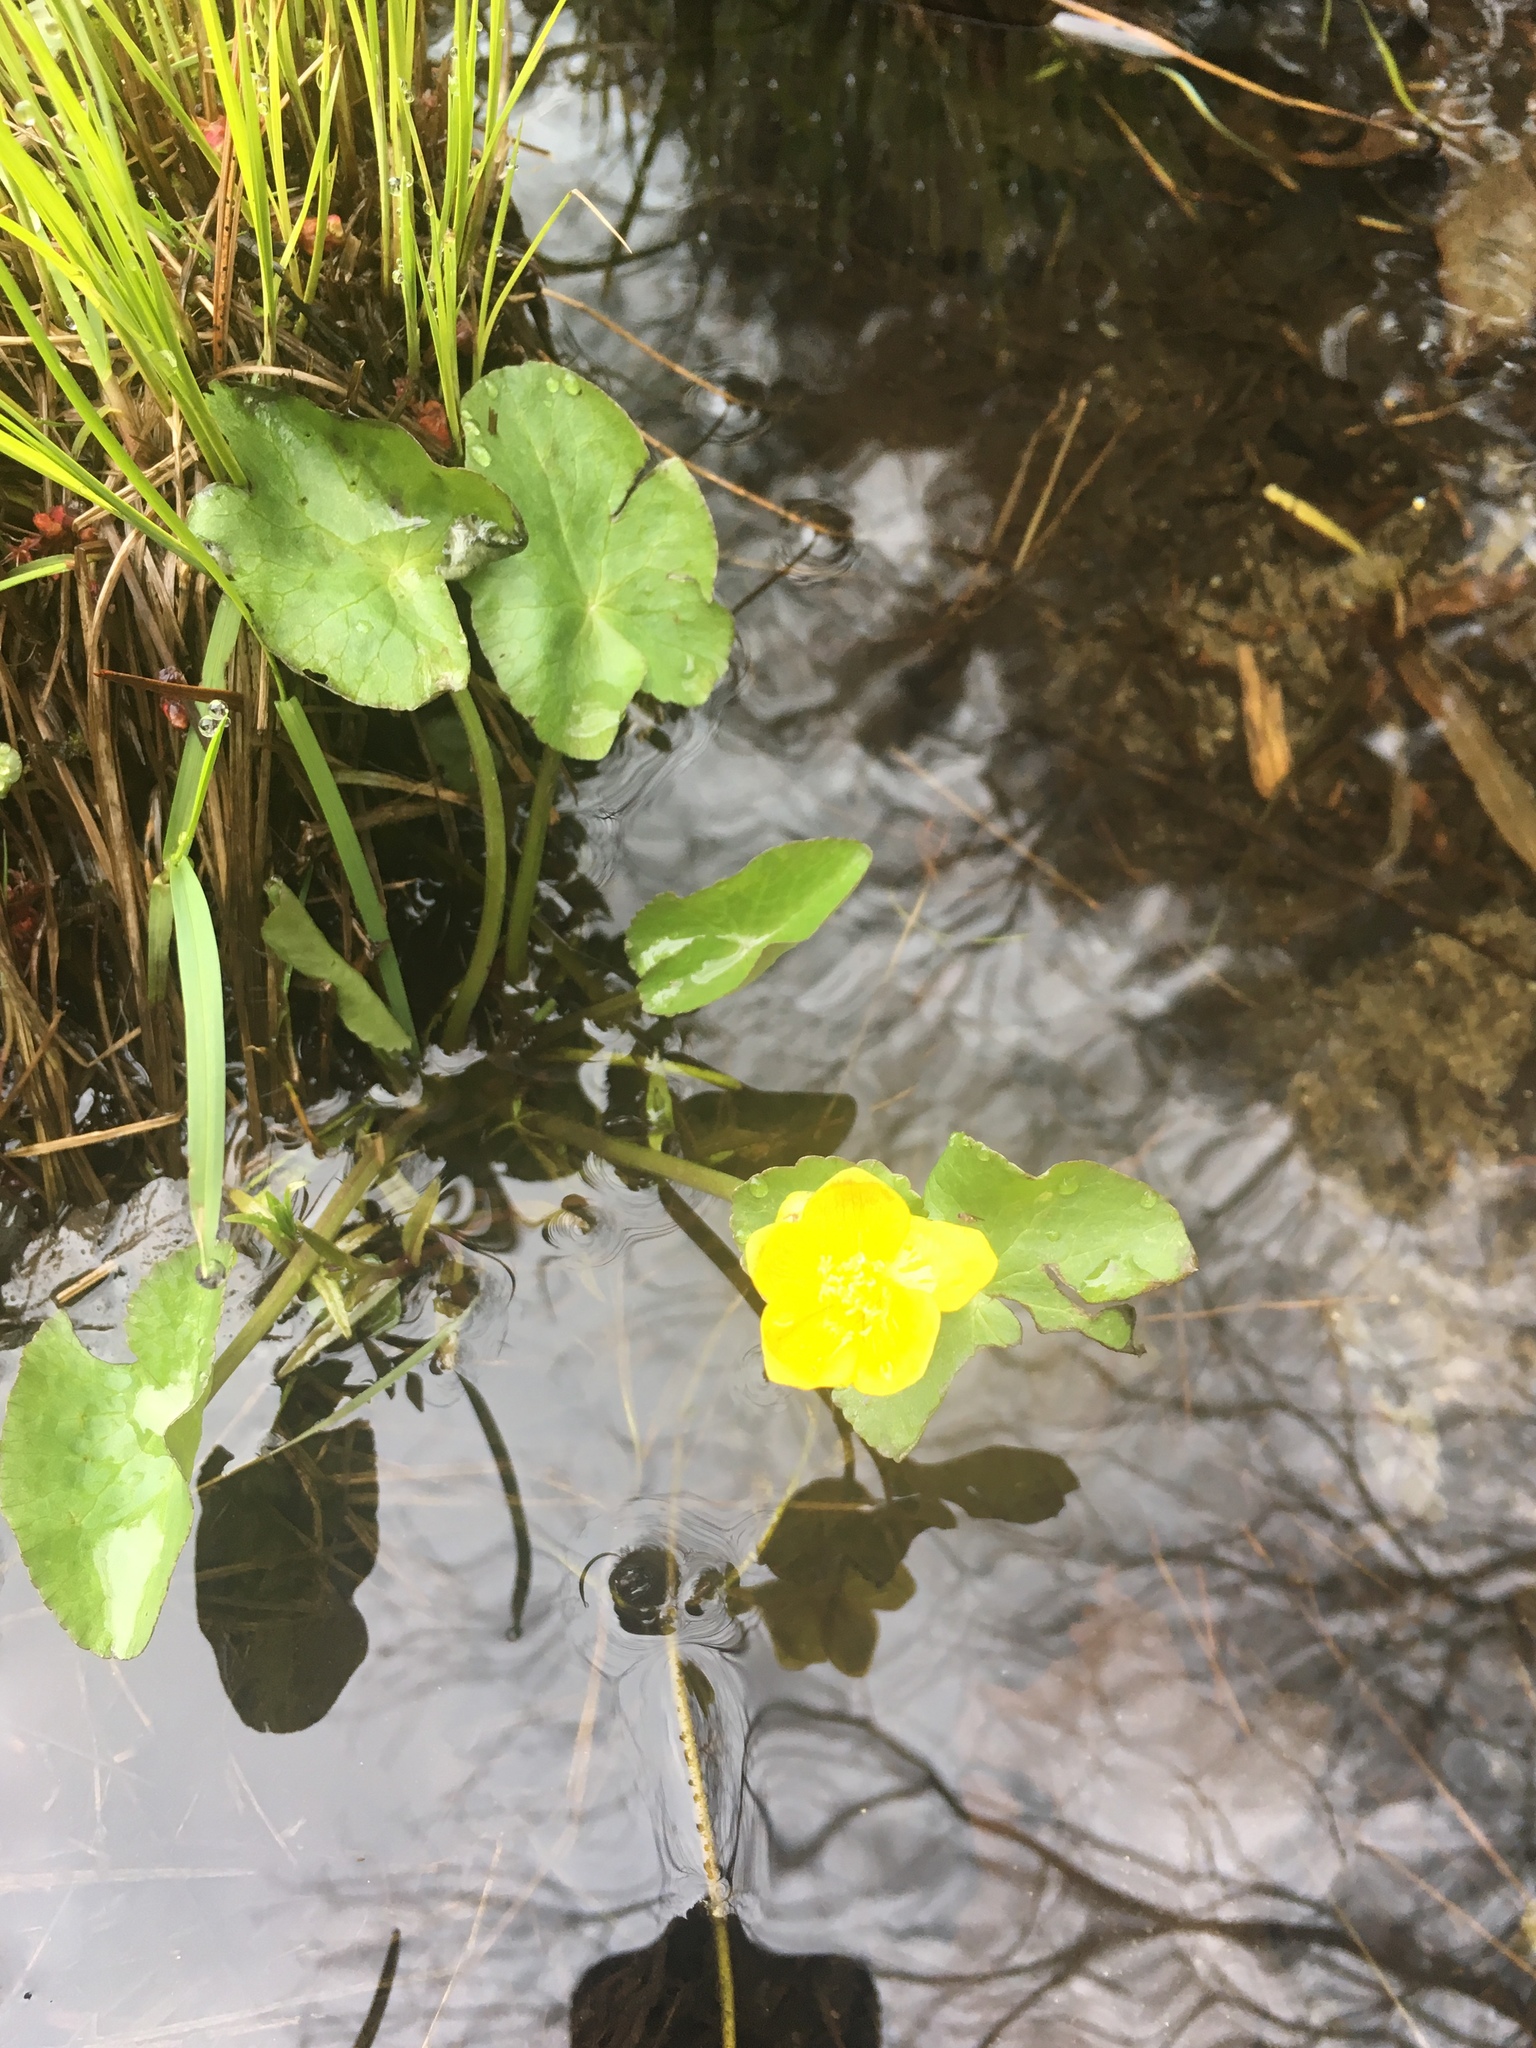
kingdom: Plantae
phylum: Tracheophyta
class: Magnoliopsida
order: Ranunculales
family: Ranunculaceae
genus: Caltha
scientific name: Caltha palustris
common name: Marsh marigold
